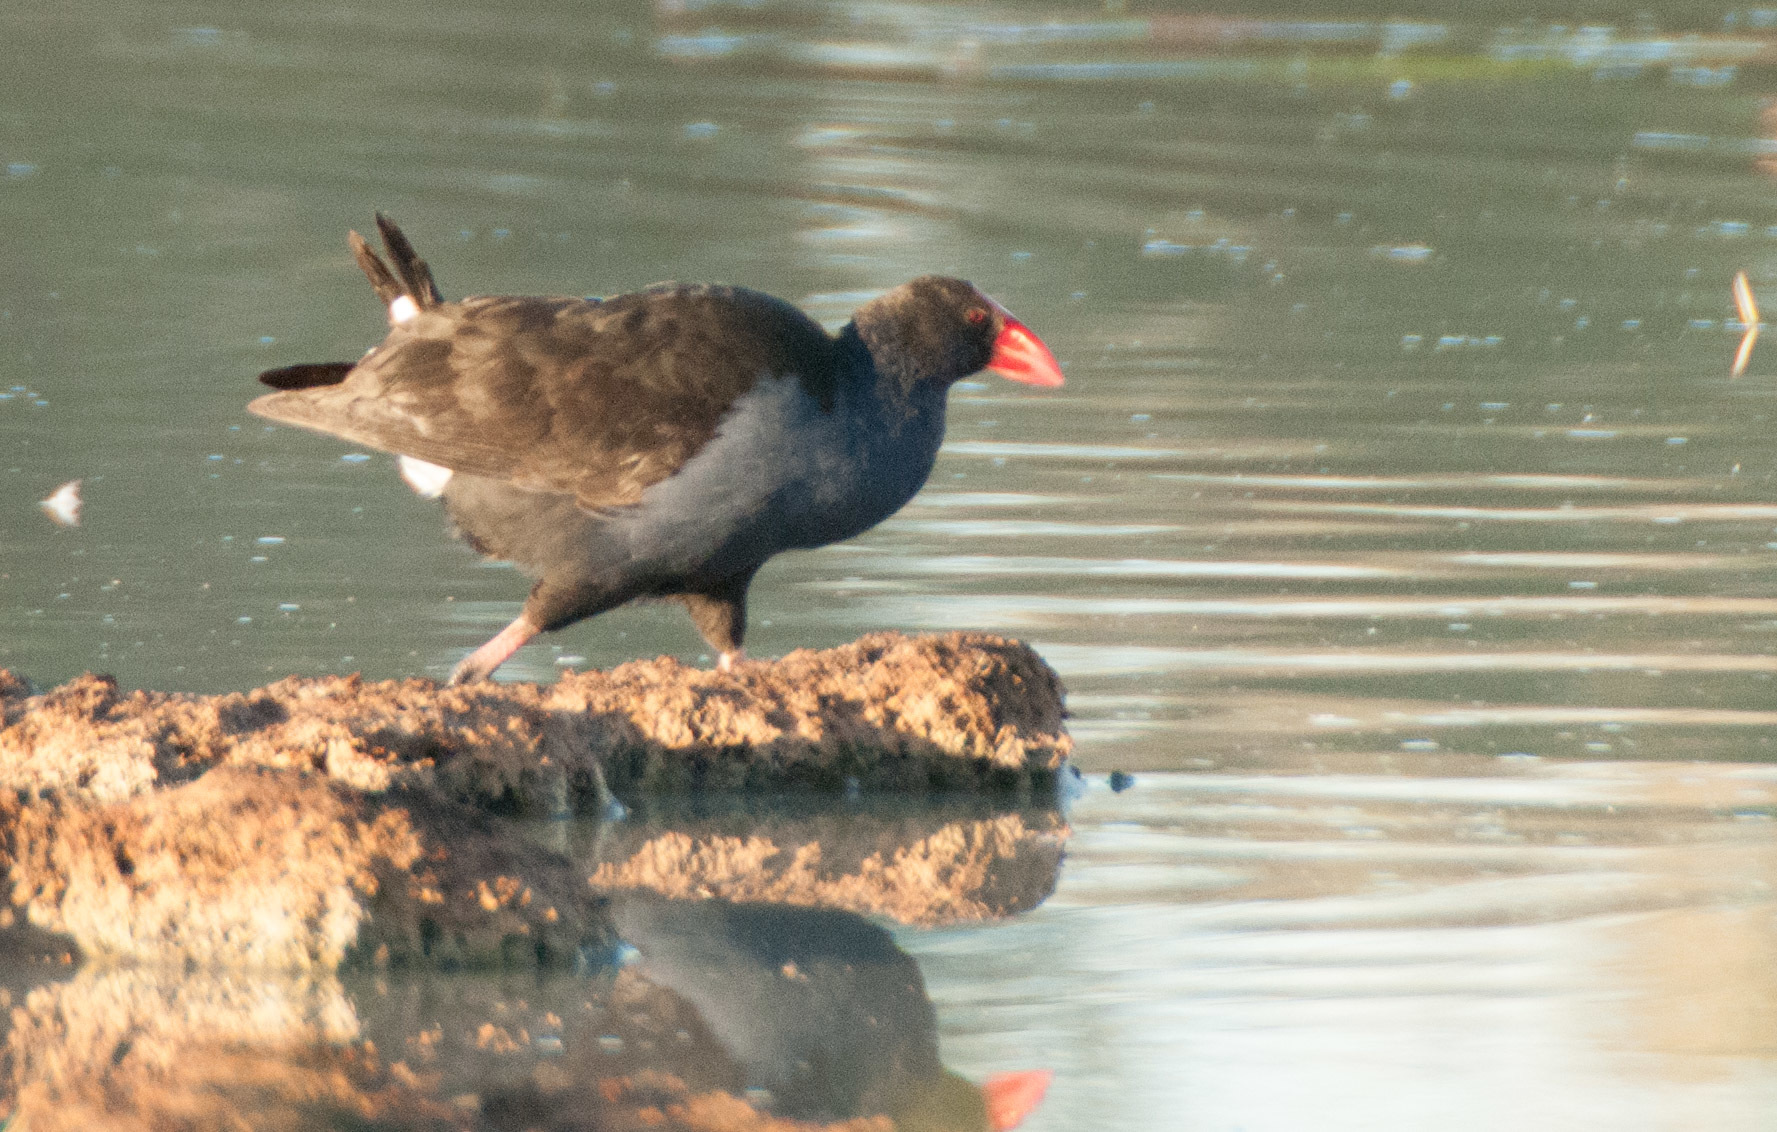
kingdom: Animalia
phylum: Chordata
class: Aves
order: Gruiformes
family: Rallidae
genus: Porphyrio
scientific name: Porphyrio melanotus
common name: Australasian swamphen
